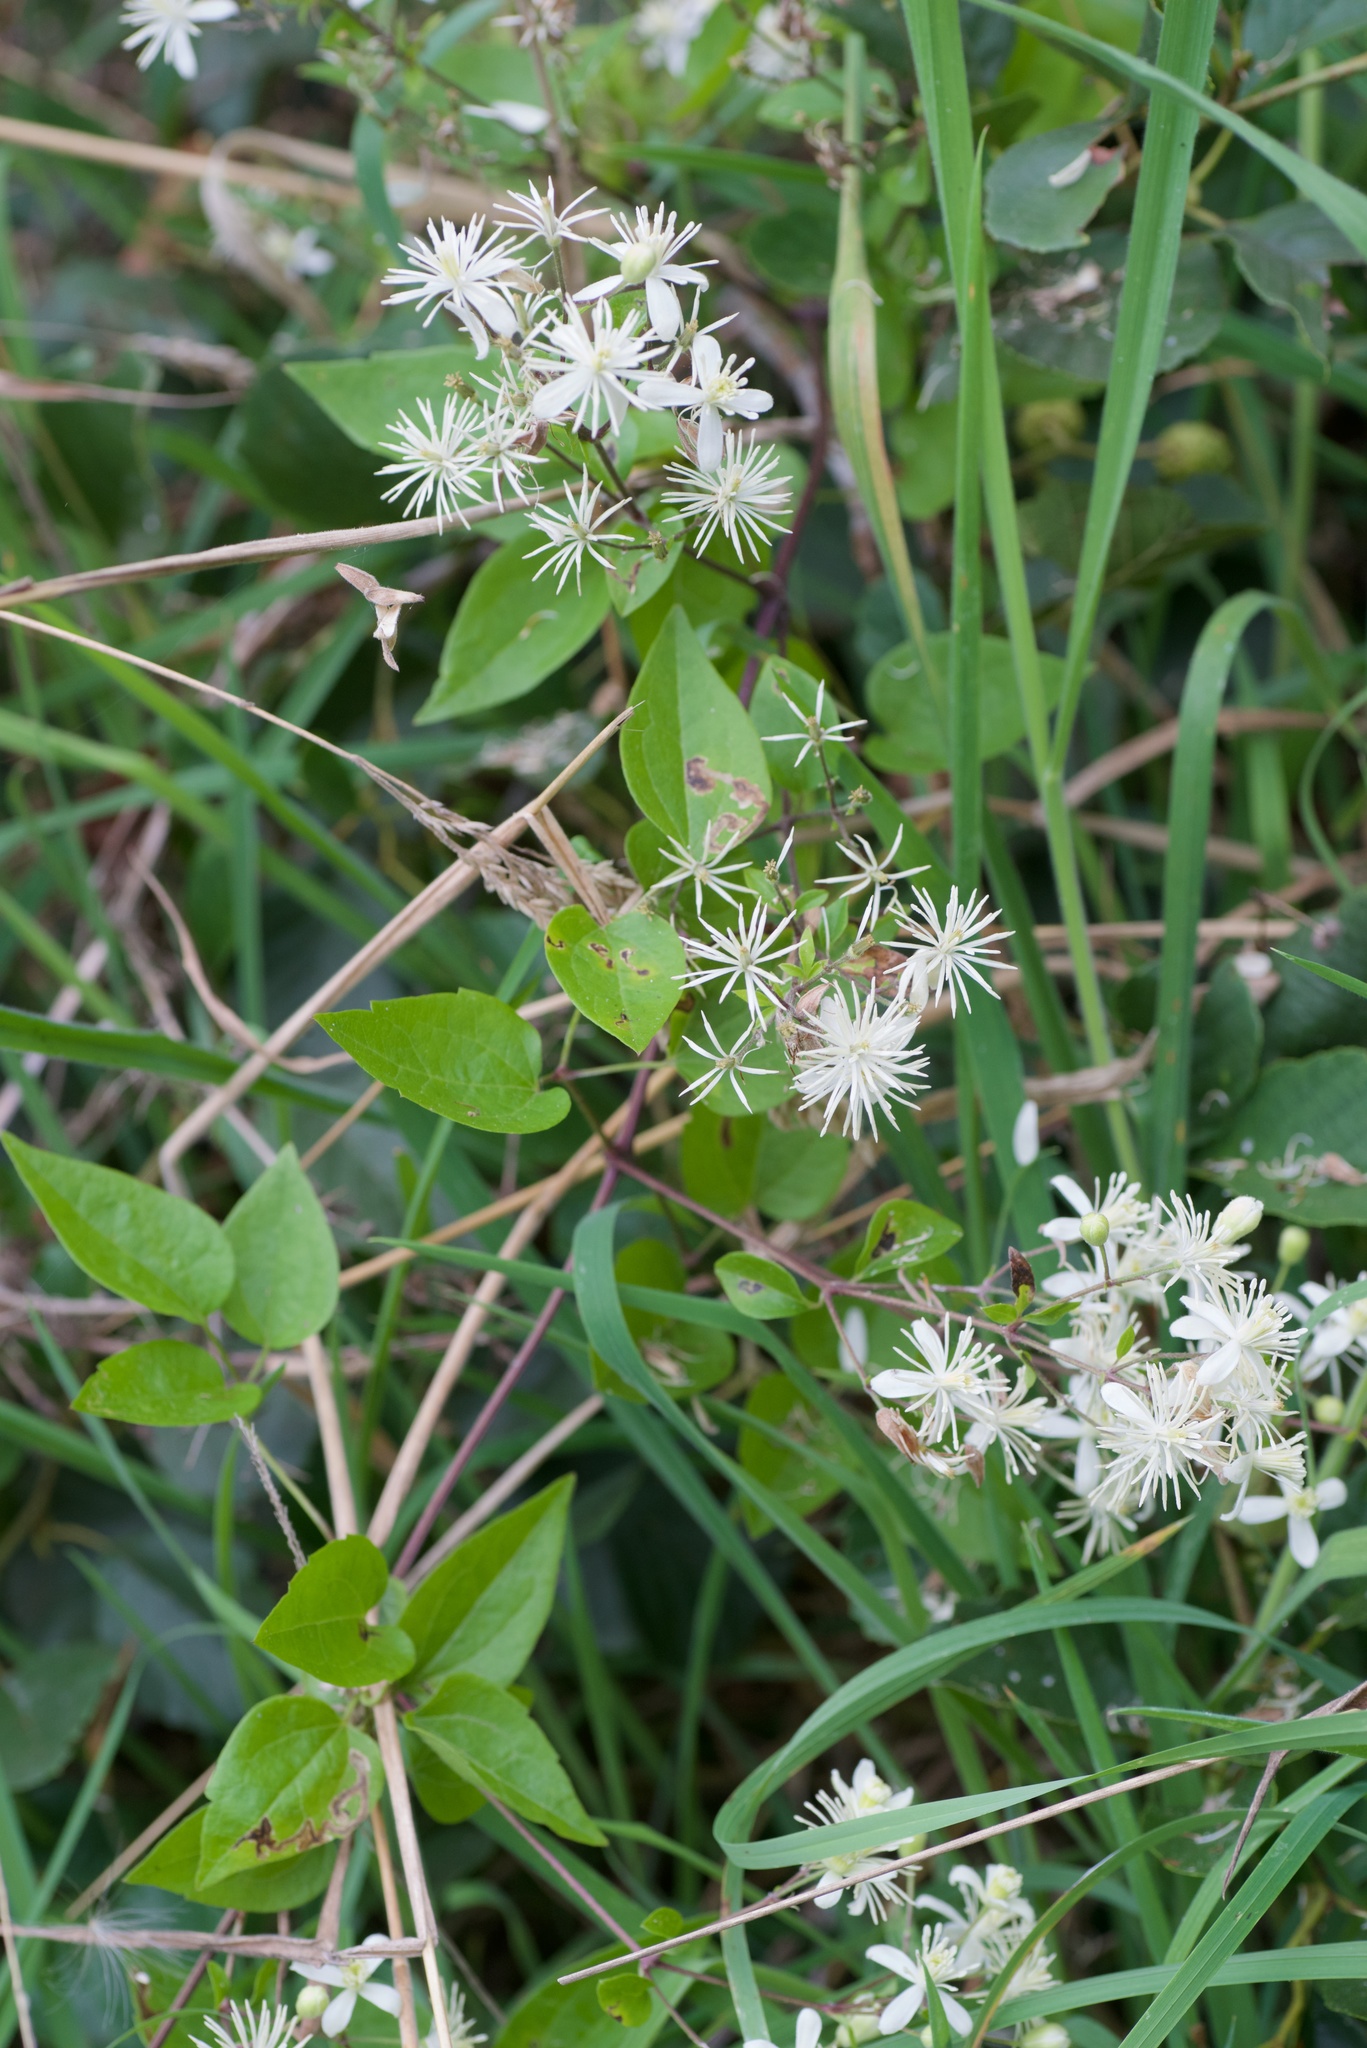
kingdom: Plantae
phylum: Tracheophyta
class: Magnoliopsida
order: Ranunculales
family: Ranunculaceae
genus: Clematis
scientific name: Clematis vitalba
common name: Evergreen clematis
